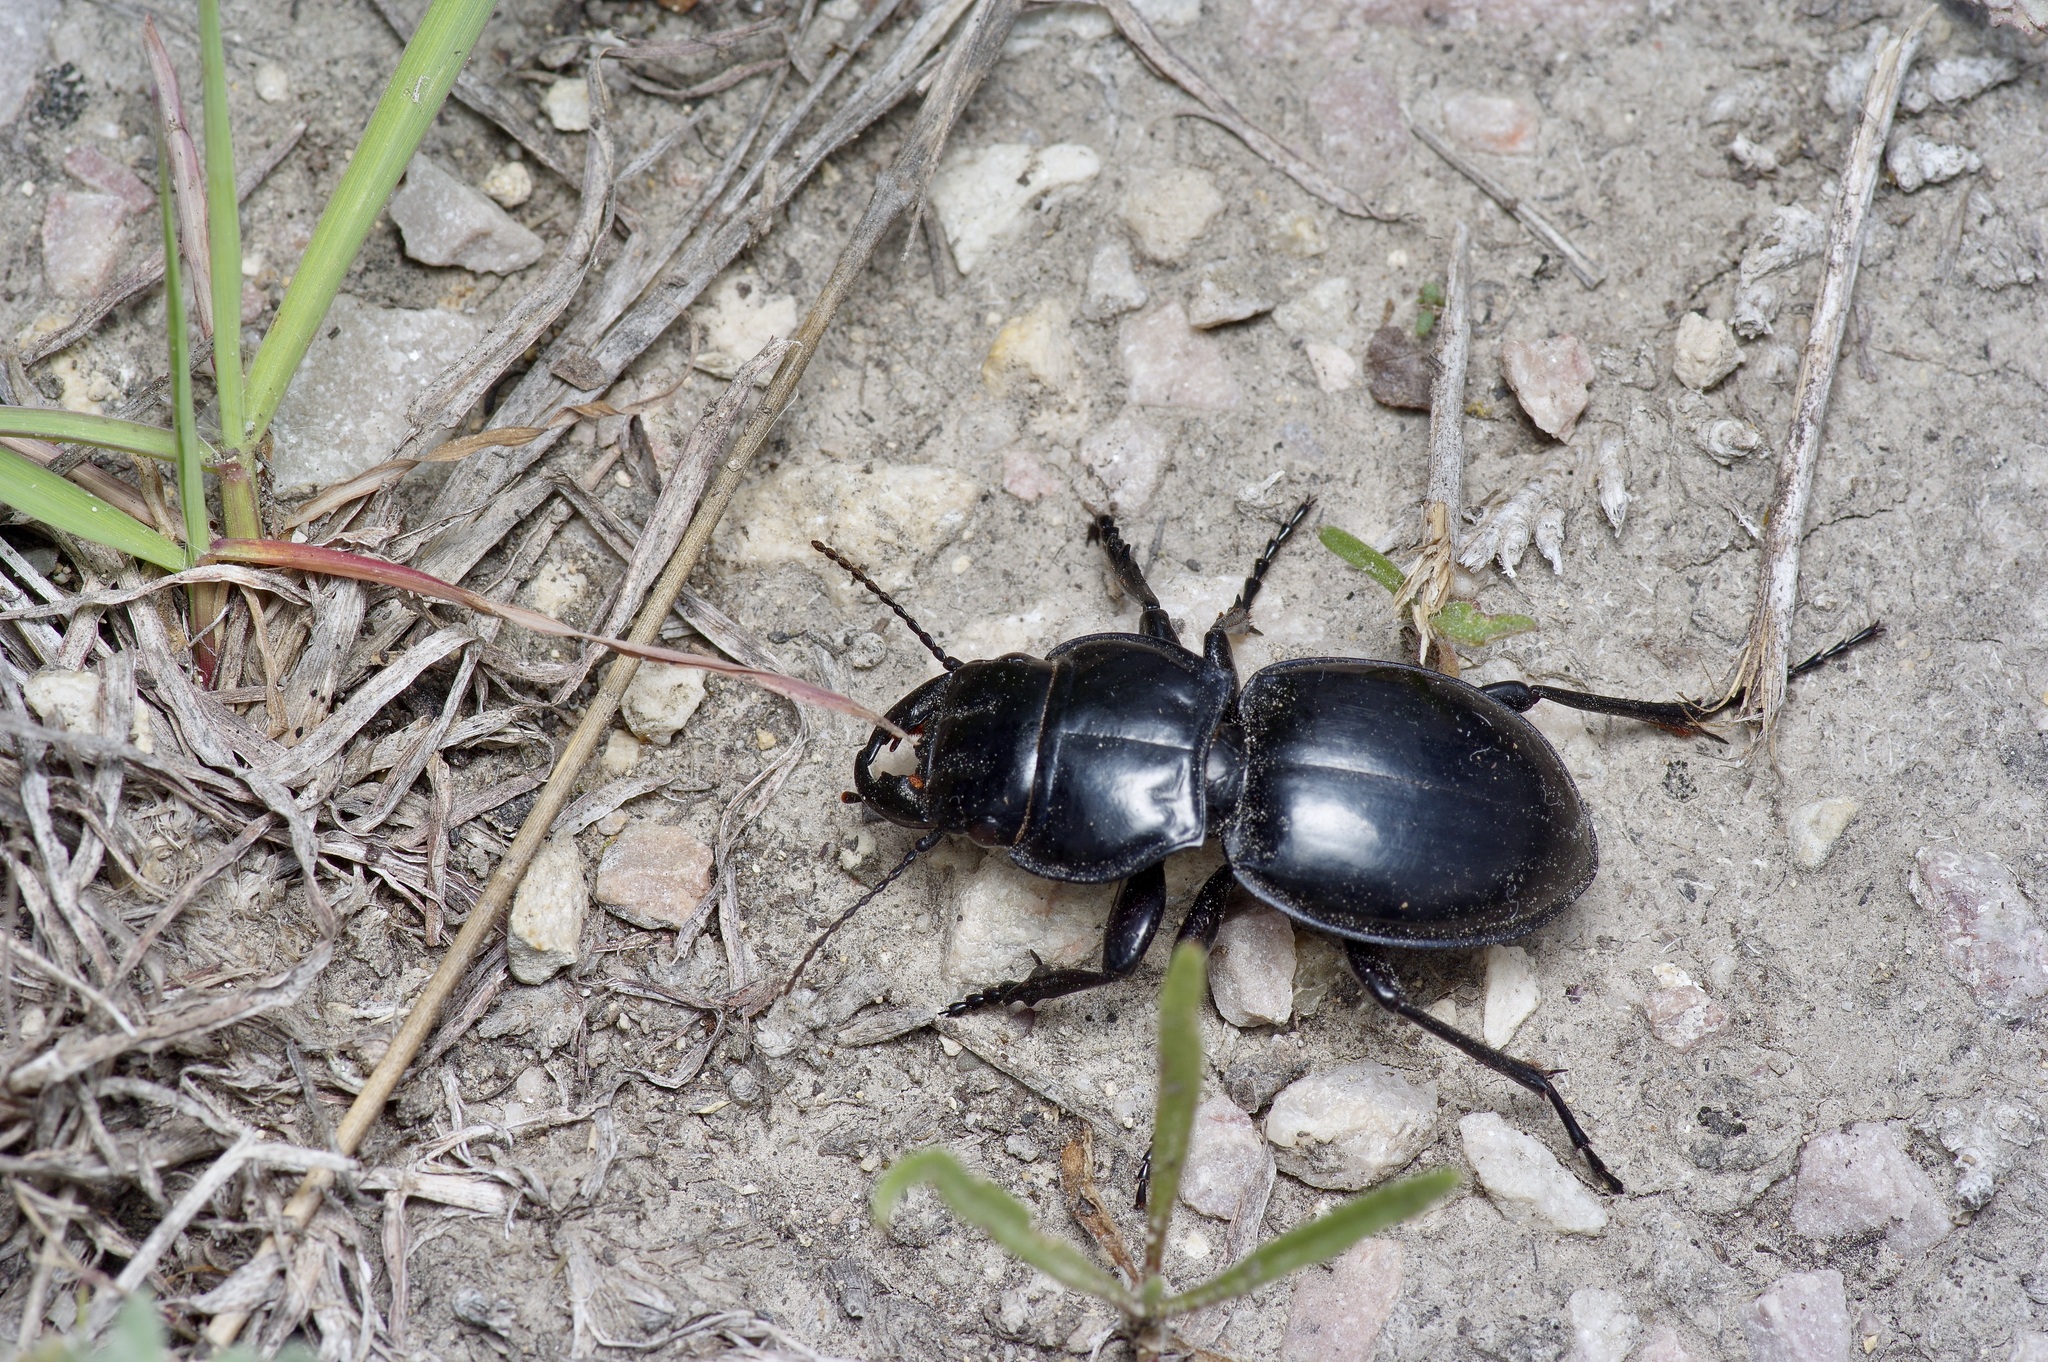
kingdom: Animalia
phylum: Arthropoda
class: Insecta
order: Coleoptera
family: Carabidae
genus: Pasimachus
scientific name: Pasimachus californicus
